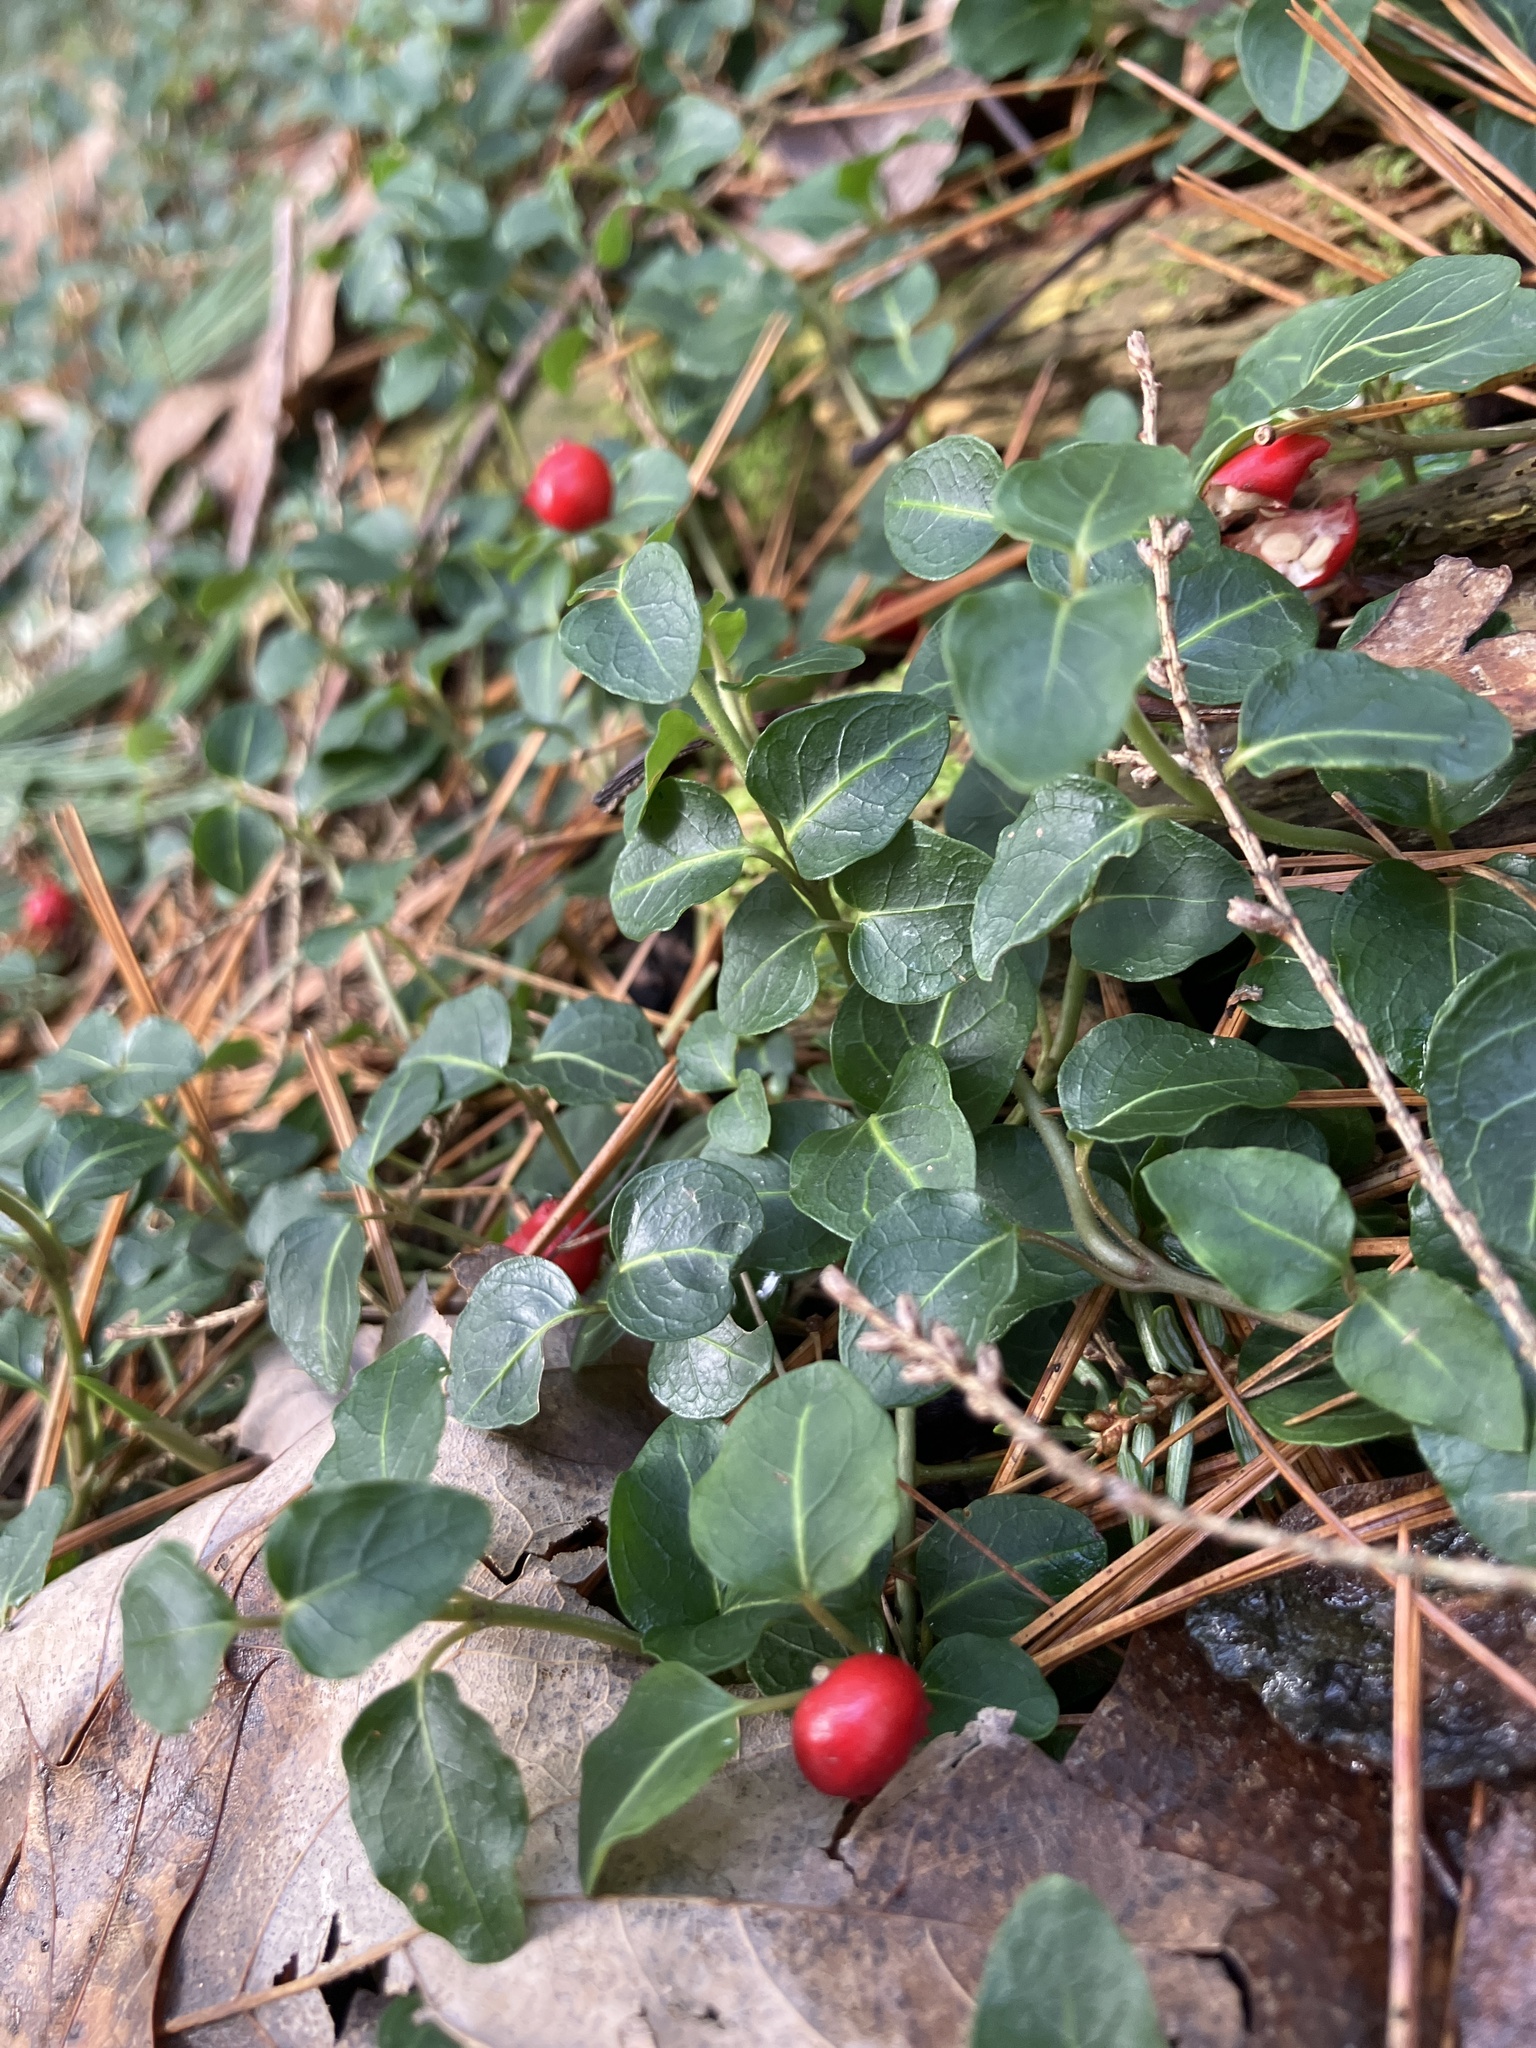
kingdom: Plantae
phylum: Tracheophyta
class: Magnoliopsida
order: Gentianales
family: Rubiaceae
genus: Mitchella
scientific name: Mitchella repens
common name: Partridge-berry
